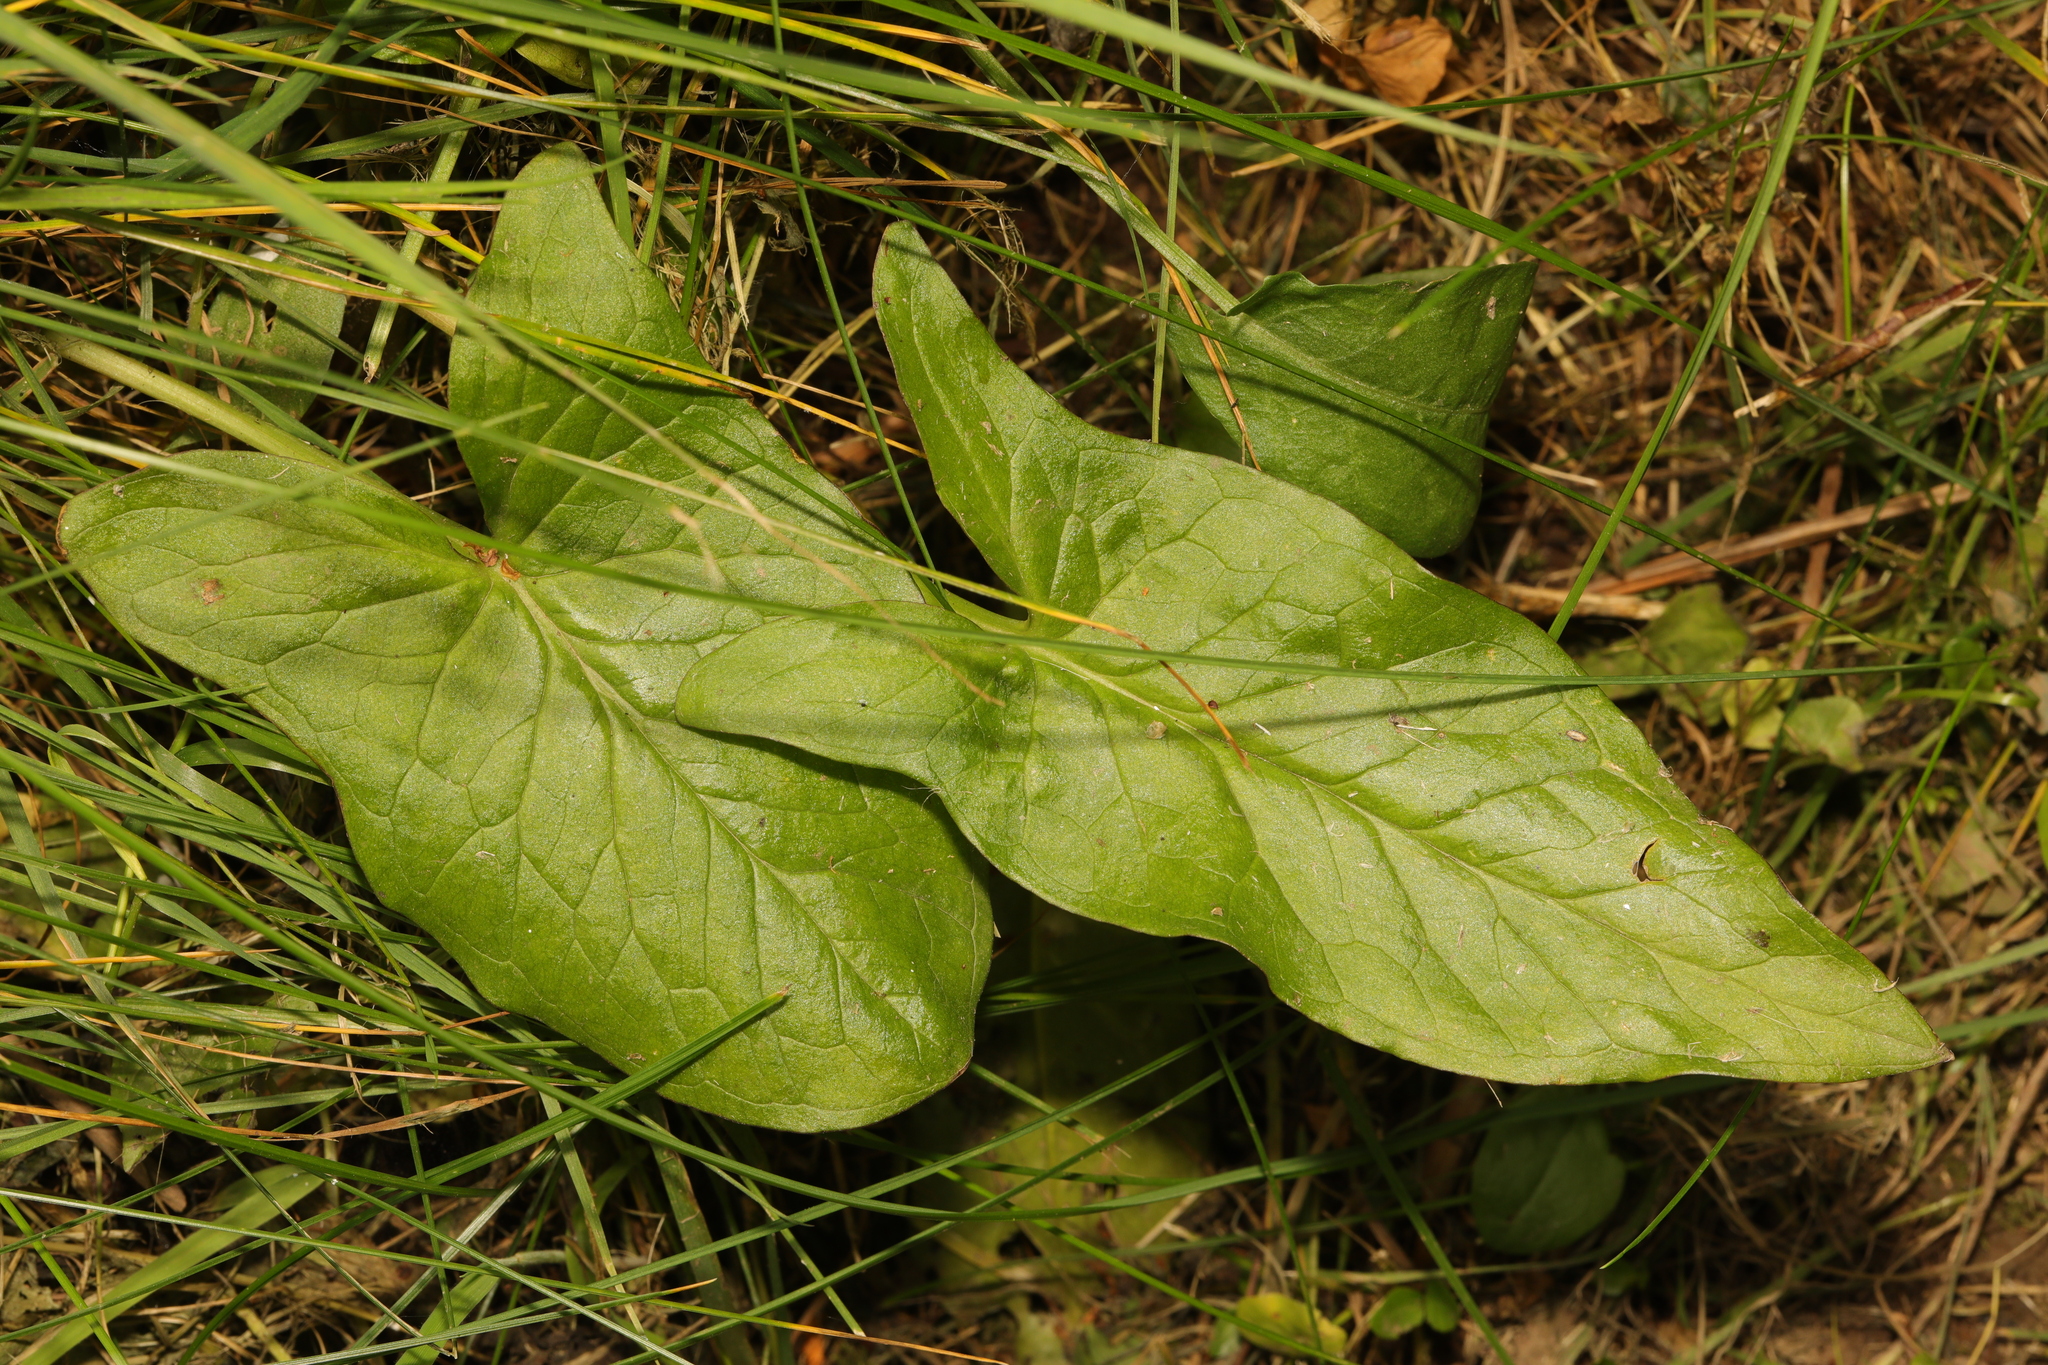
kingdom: Plantae
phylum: Tracheophyta
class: Liliopsida
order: Alismatales
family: Araceae
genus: Arum
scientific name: Arum maculatum
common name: Lords-and-ladies
